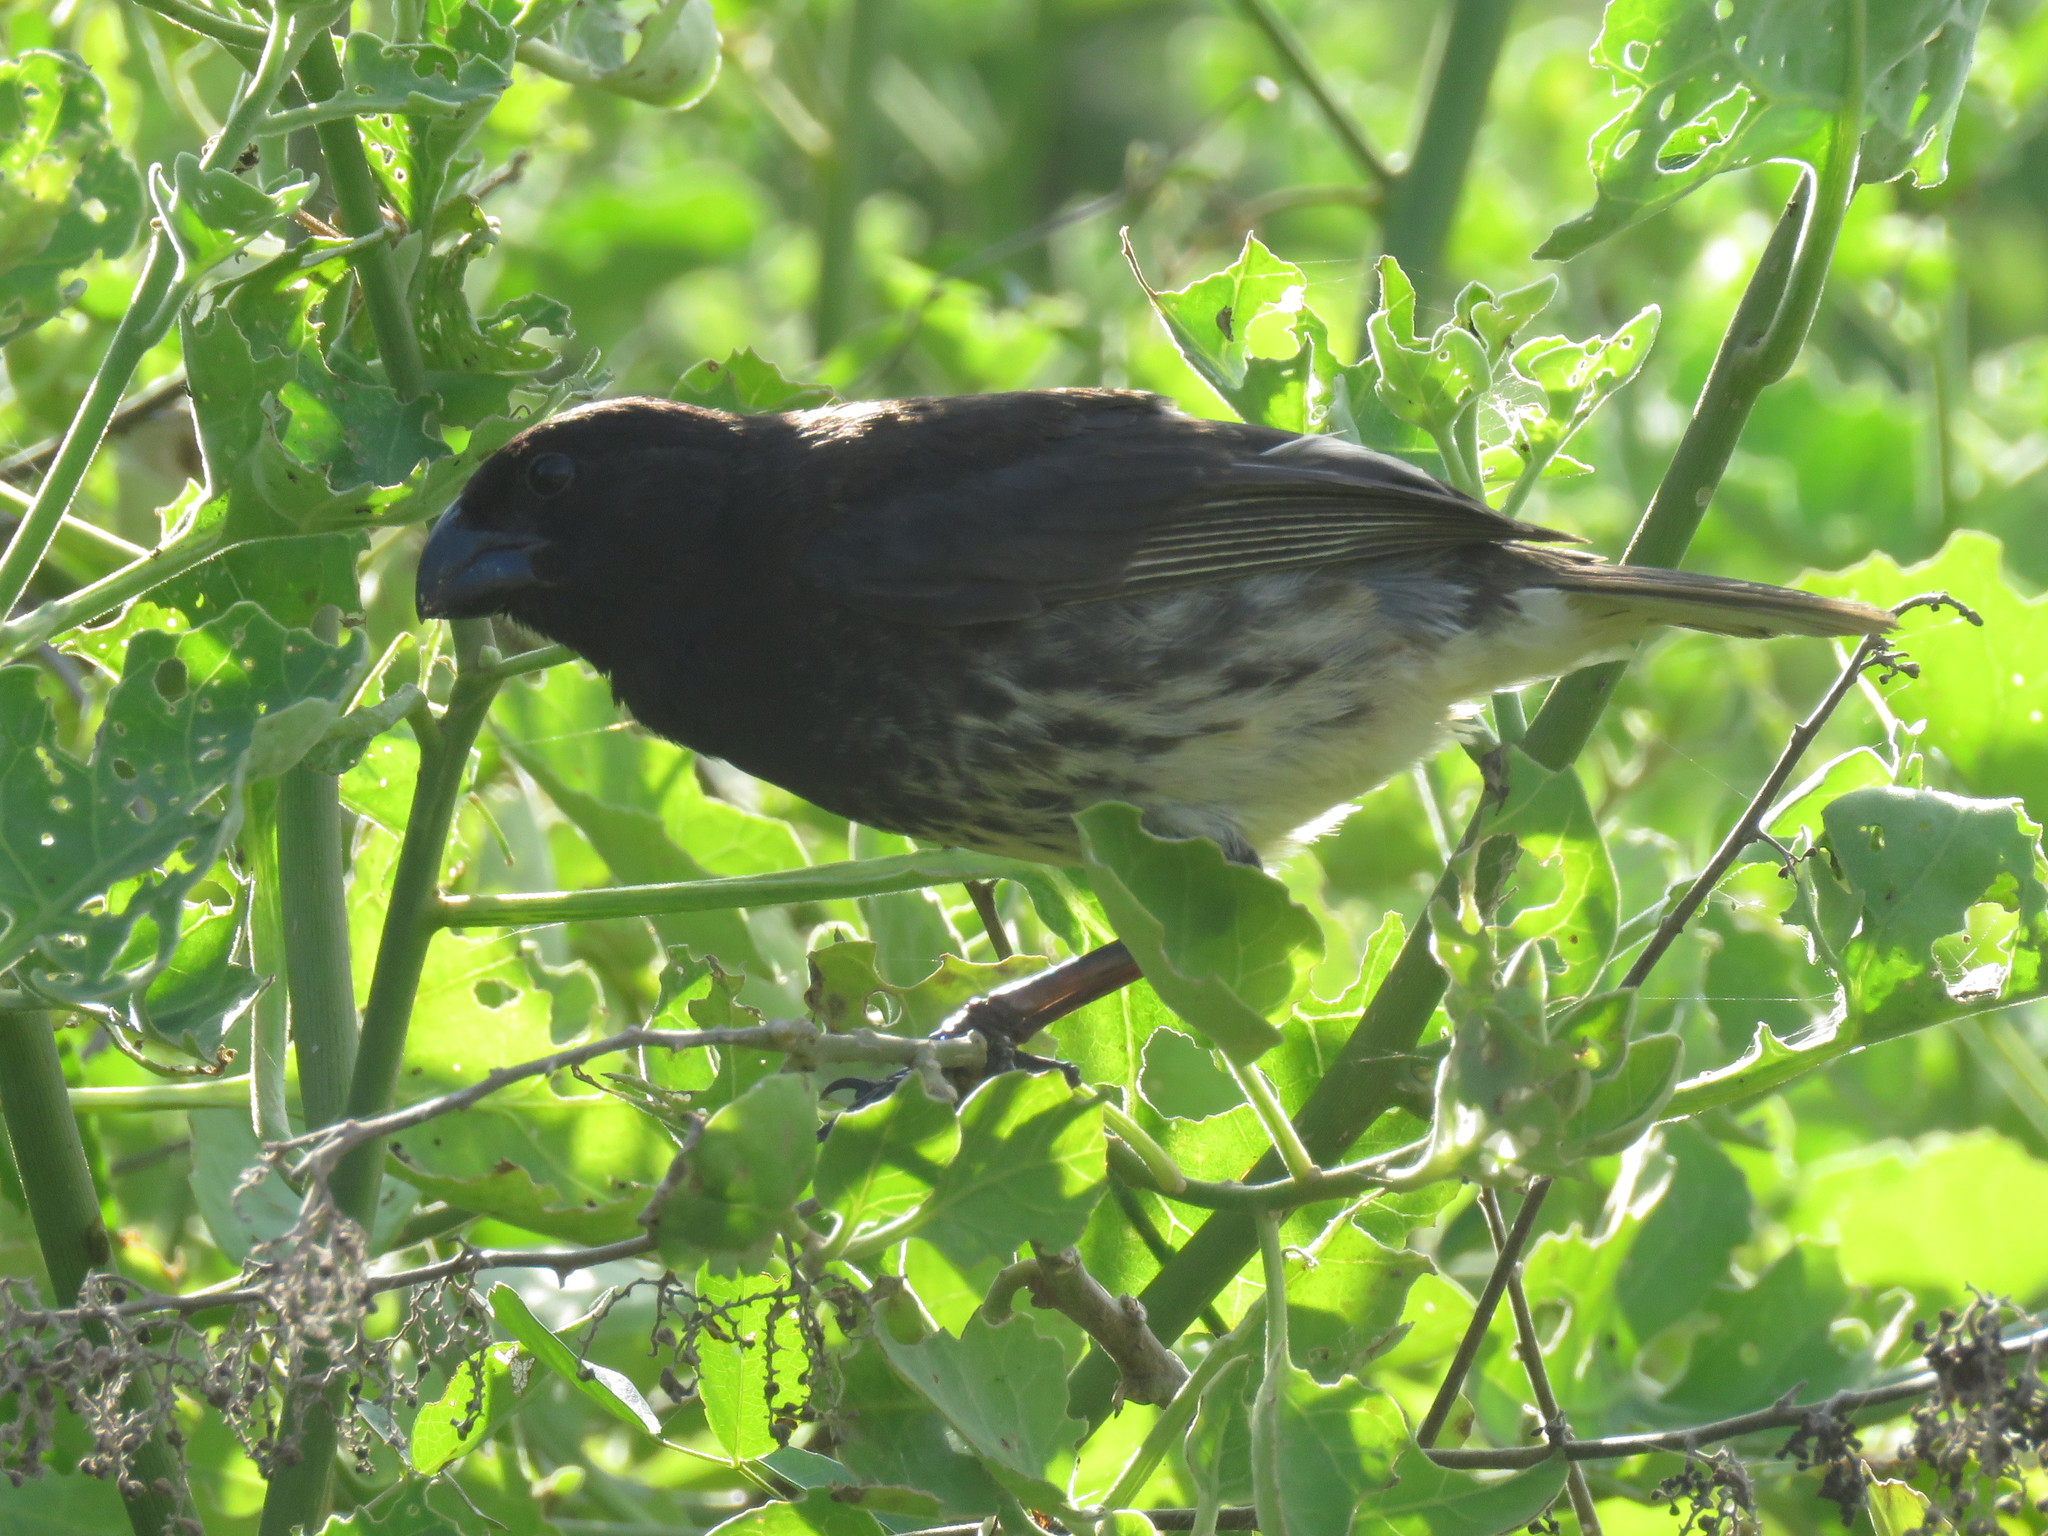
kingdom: Animalia
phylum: Chordata
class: Aves
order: Passeriformes
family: Thraupidae
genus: Platyspiza
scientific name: Platyspiza crassirostris
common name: Vegetarian finch
